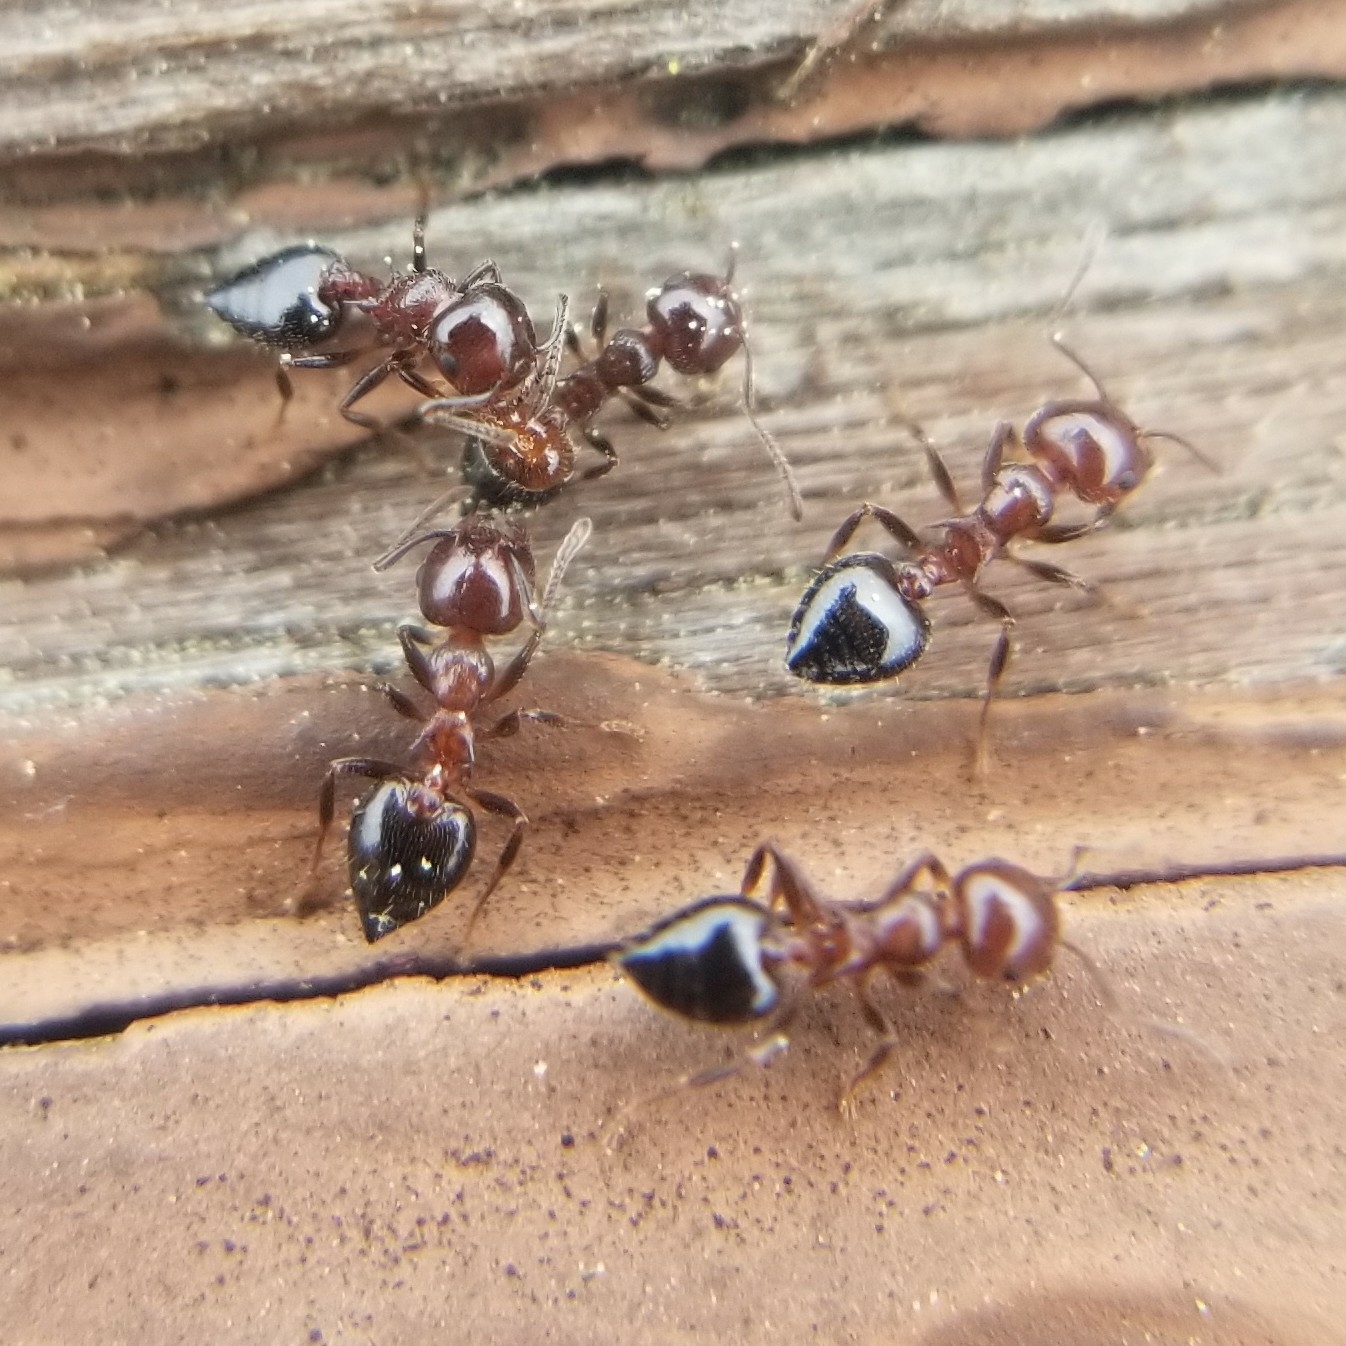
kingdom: Animalia
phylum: Arthropoda
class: Insecta
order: Hymenoptera
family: Formicidae
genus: Crematogaster
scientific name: Crematogaster pilosa
